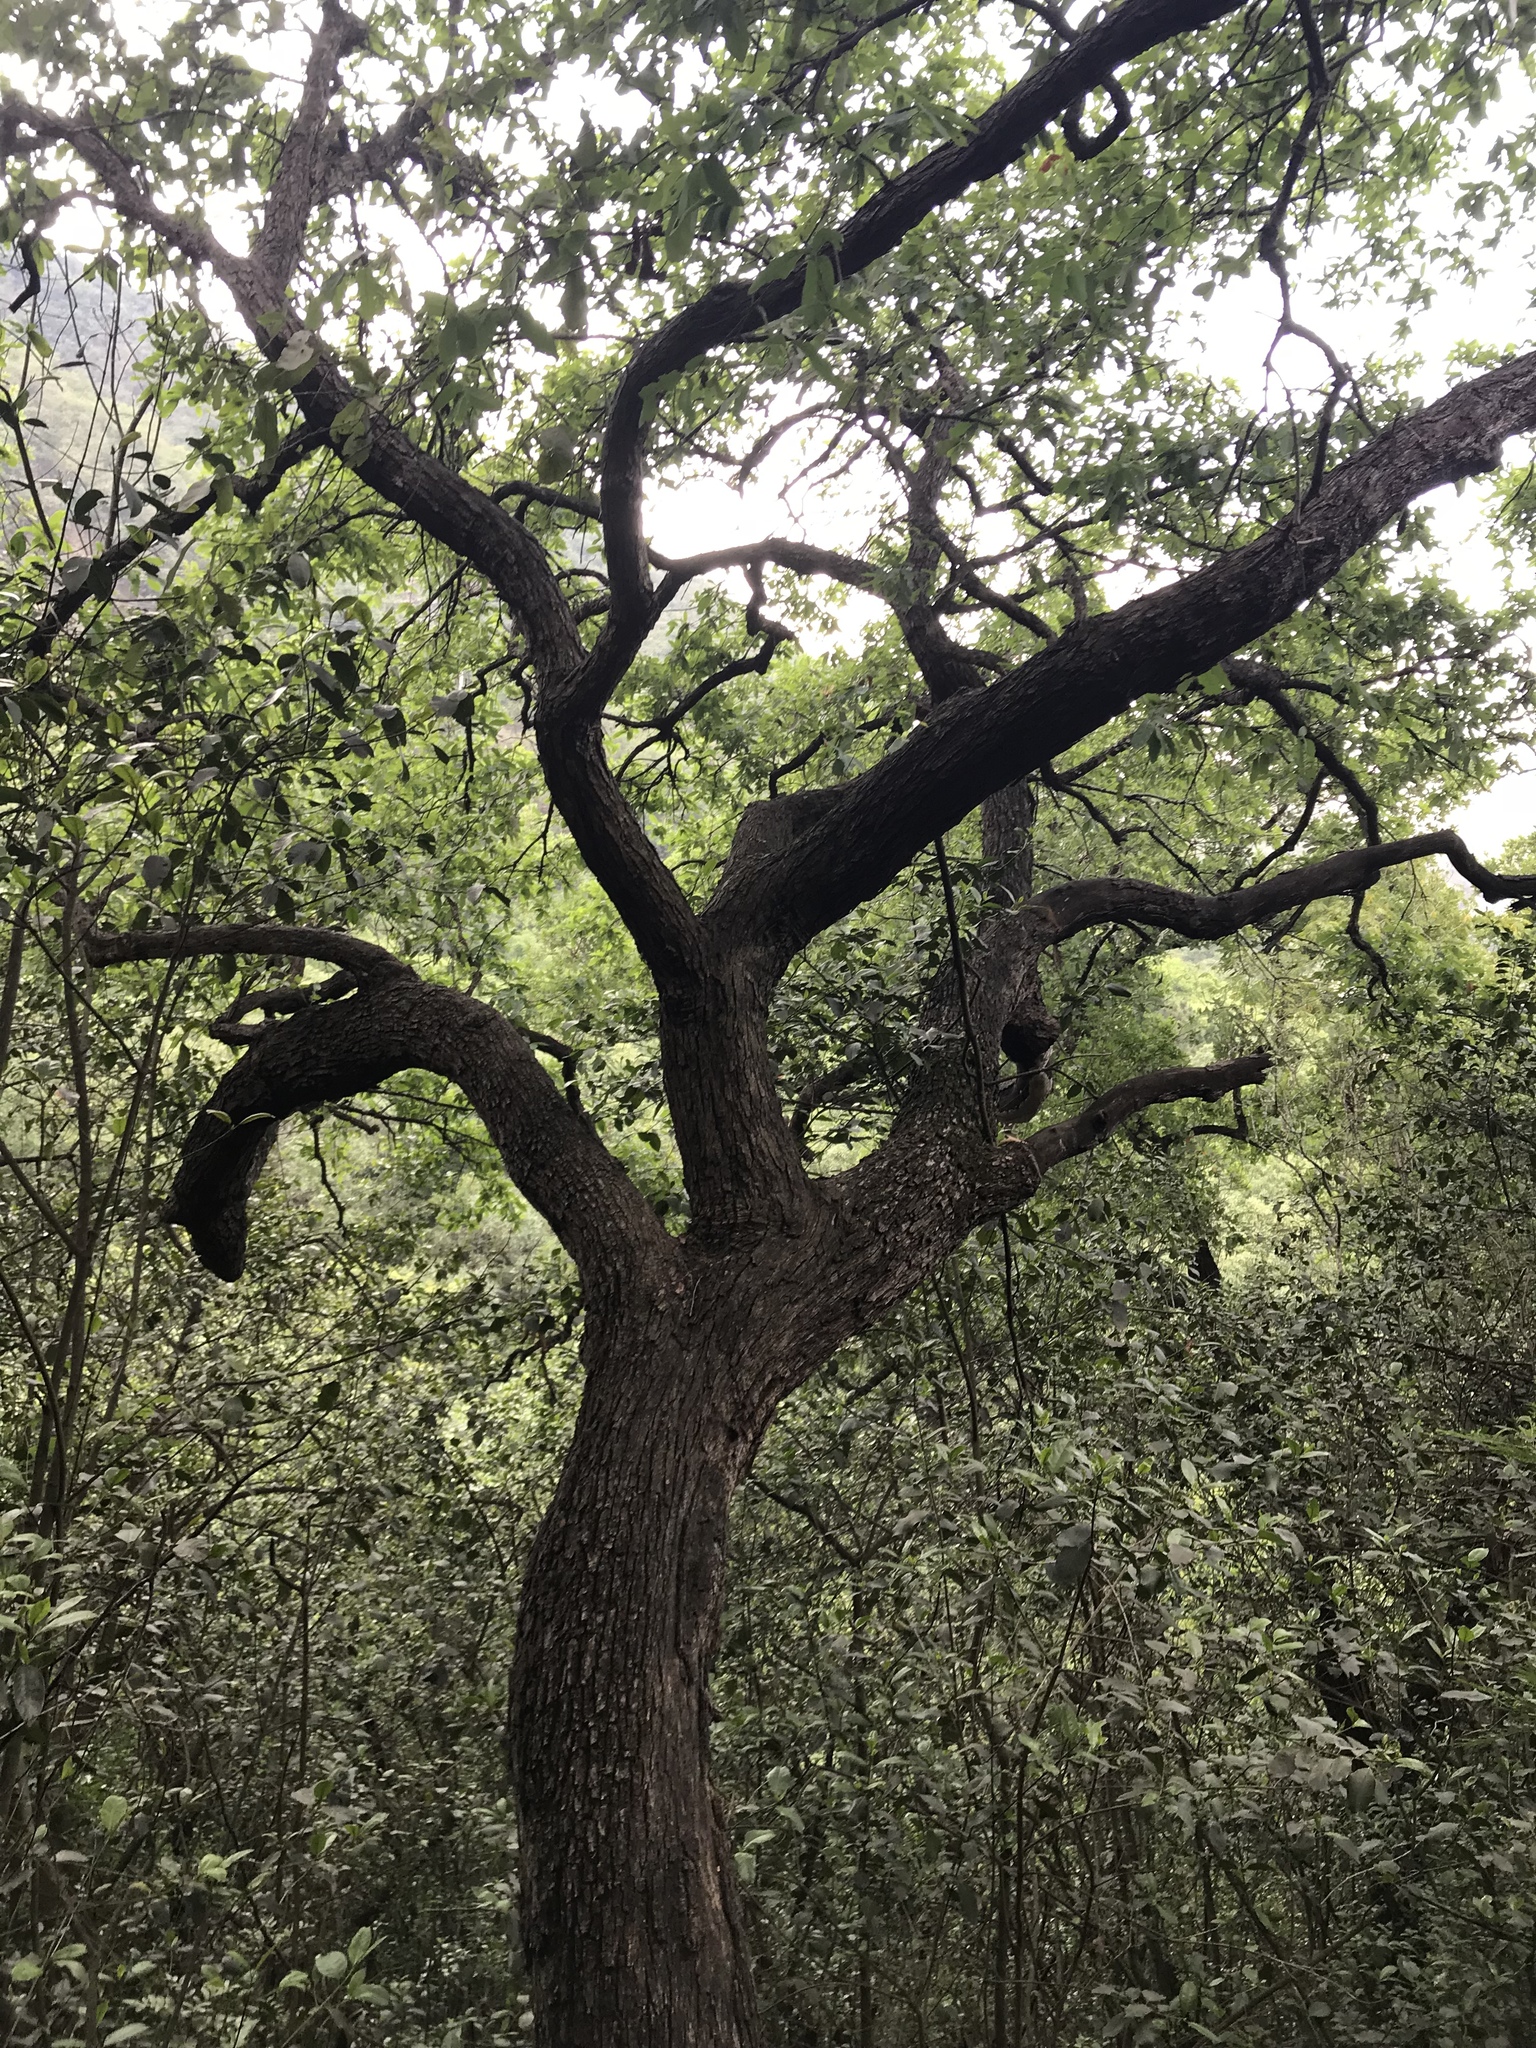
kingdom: Plantae
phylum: Tracheophyta
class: Magnoliopsida
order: Fagales
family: Fagaceae
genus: Quercus
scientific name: Quercus polymorpha
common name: Mexican white oak
